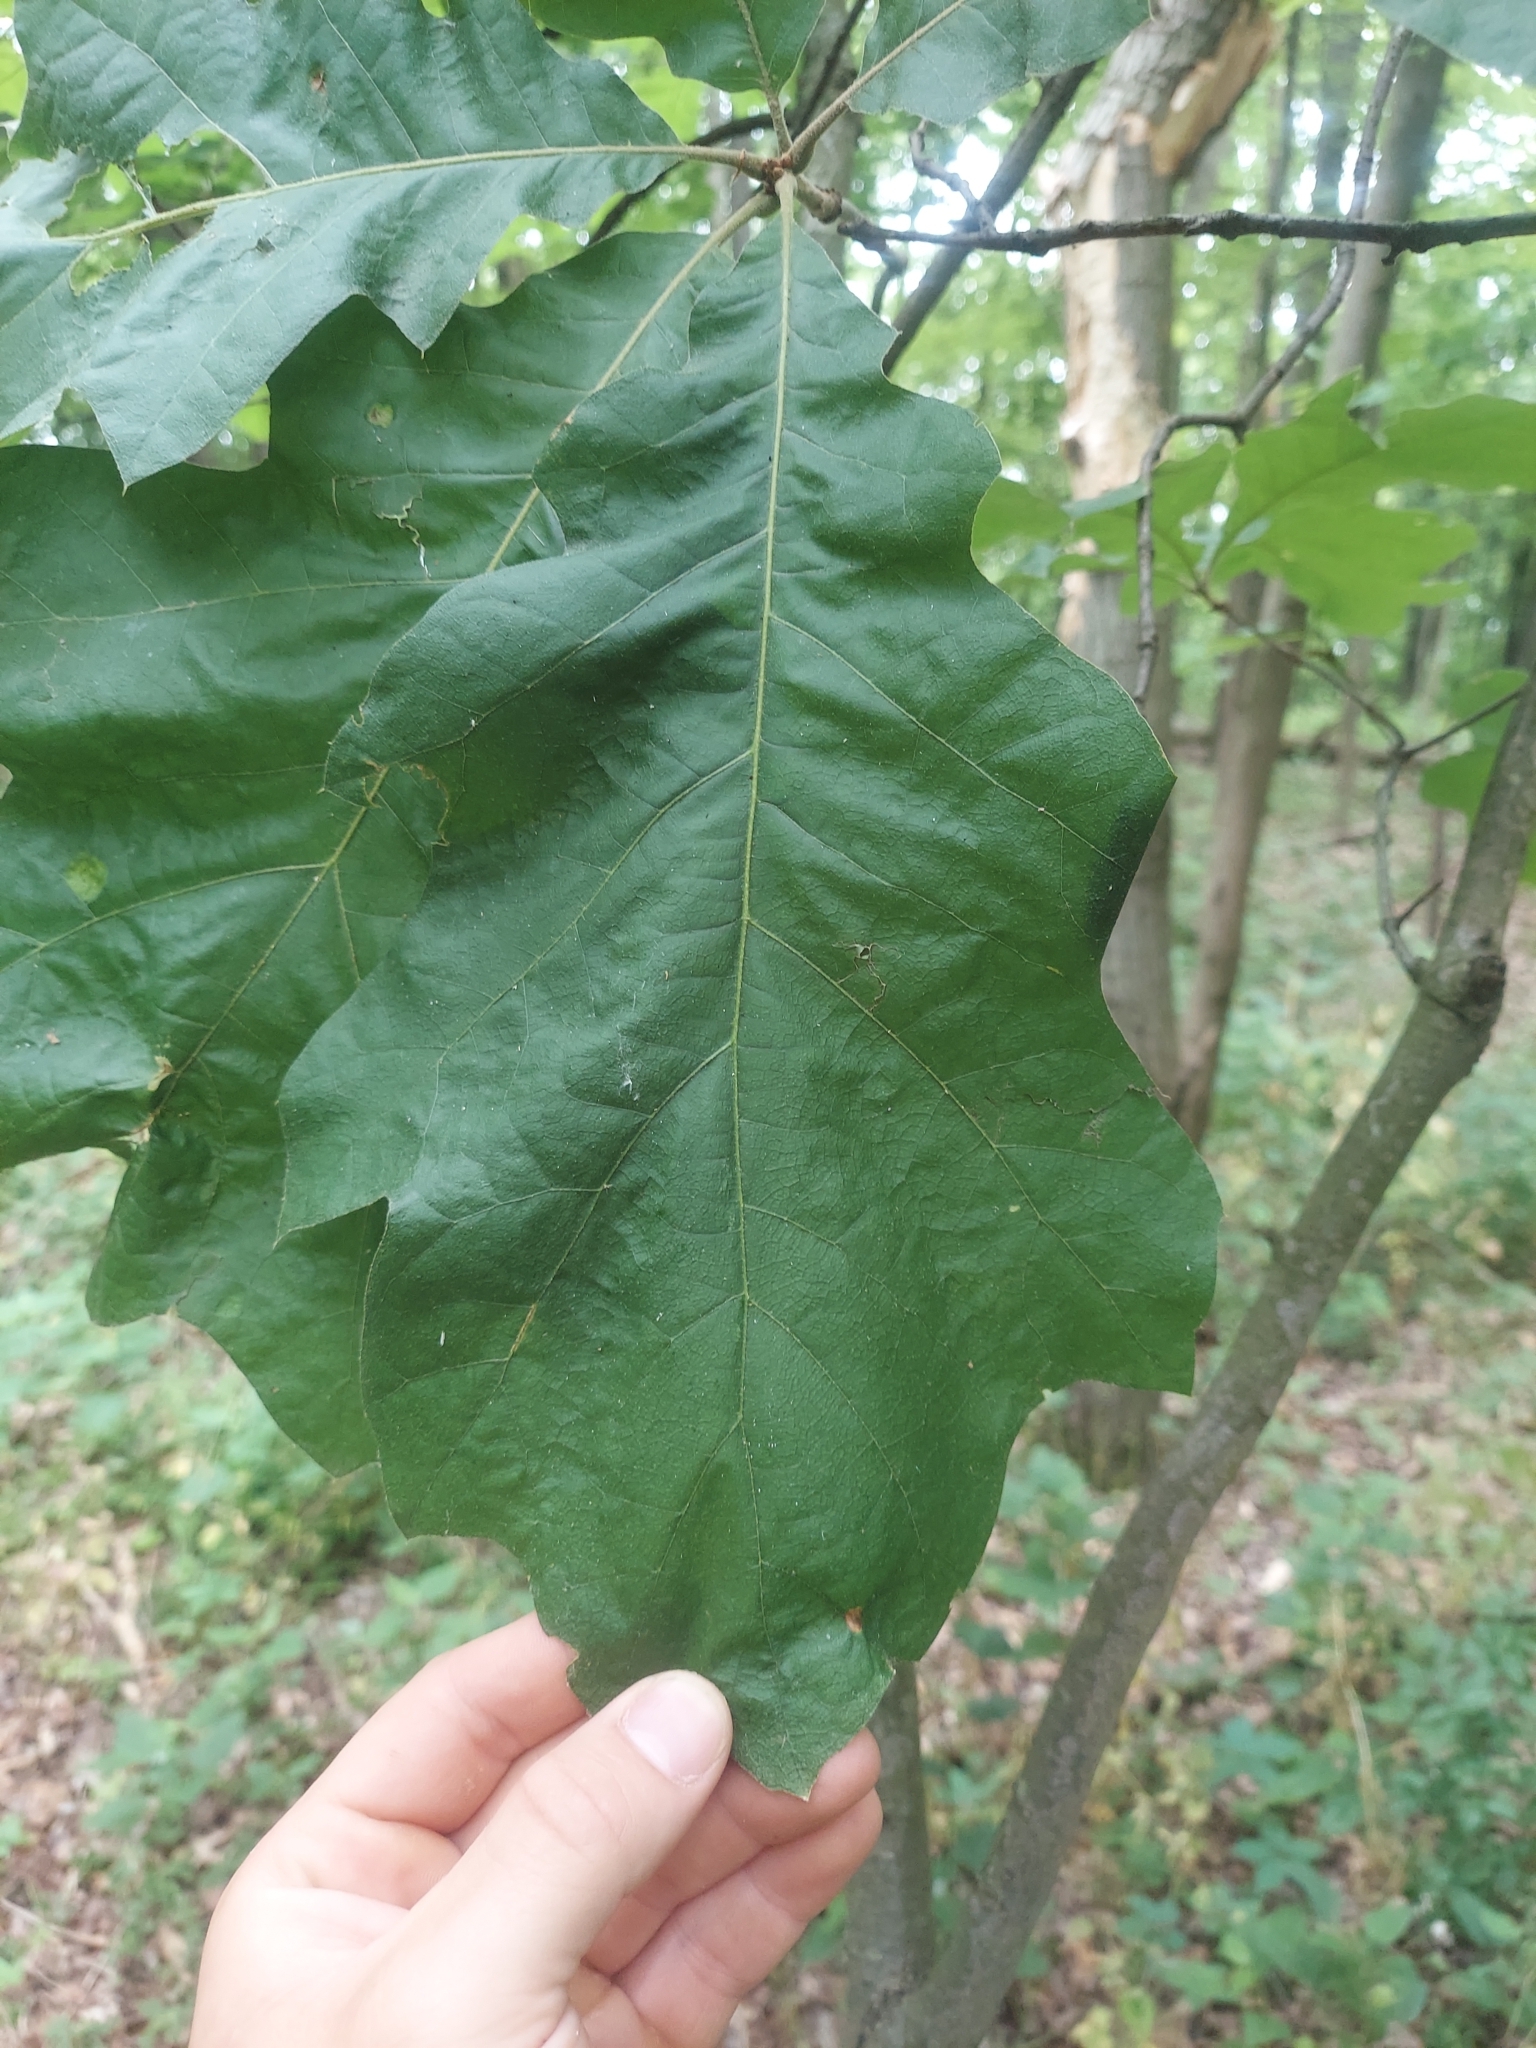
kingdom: Plantae
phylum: Tracheophyta
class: Magnoliopsida
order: Fagales
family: Fagaceae
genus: Quercus
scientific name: Quercus velutina
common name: Black oak
